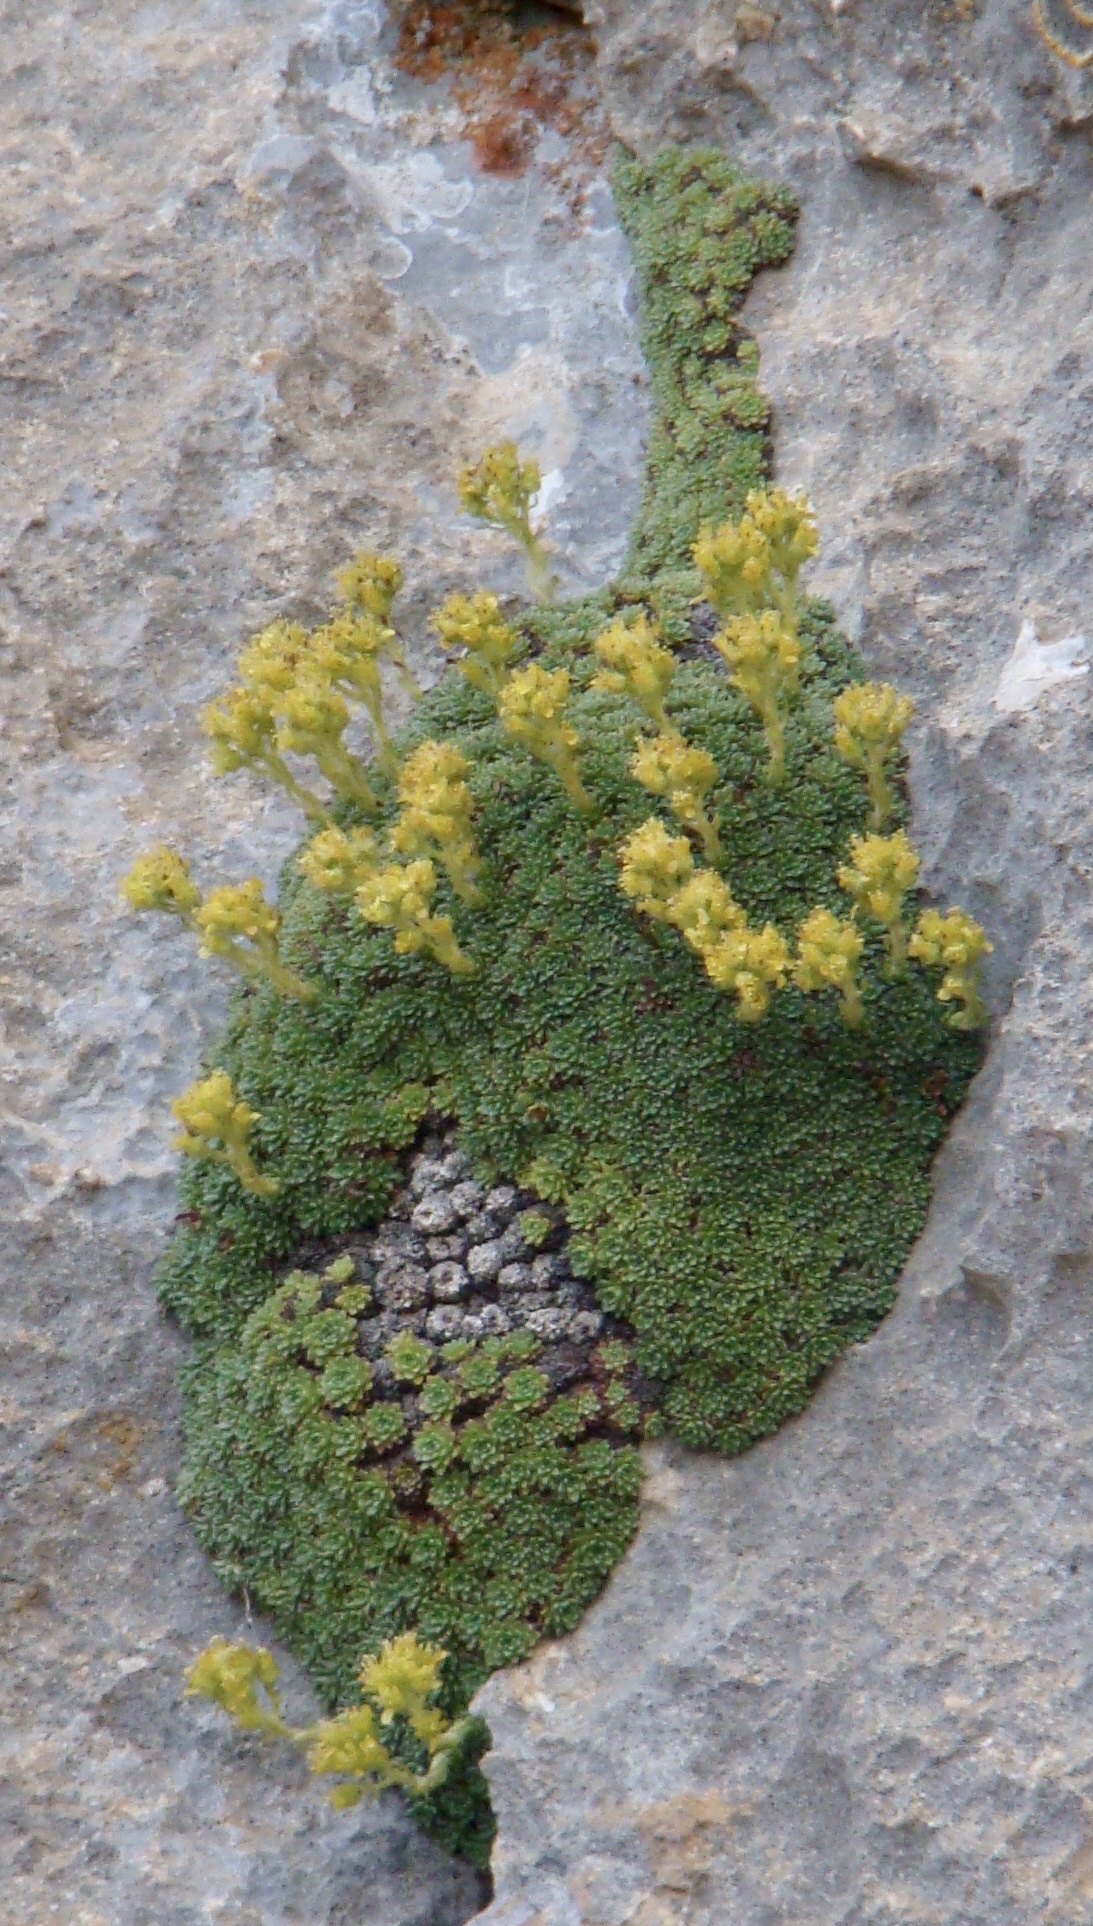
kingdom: Plantae
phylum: Tracheophyta
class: Magnoliopsida
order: Saxifragales
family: Saxifragaceae
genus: Saxifraga
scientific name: Saxifraga kotschyi
